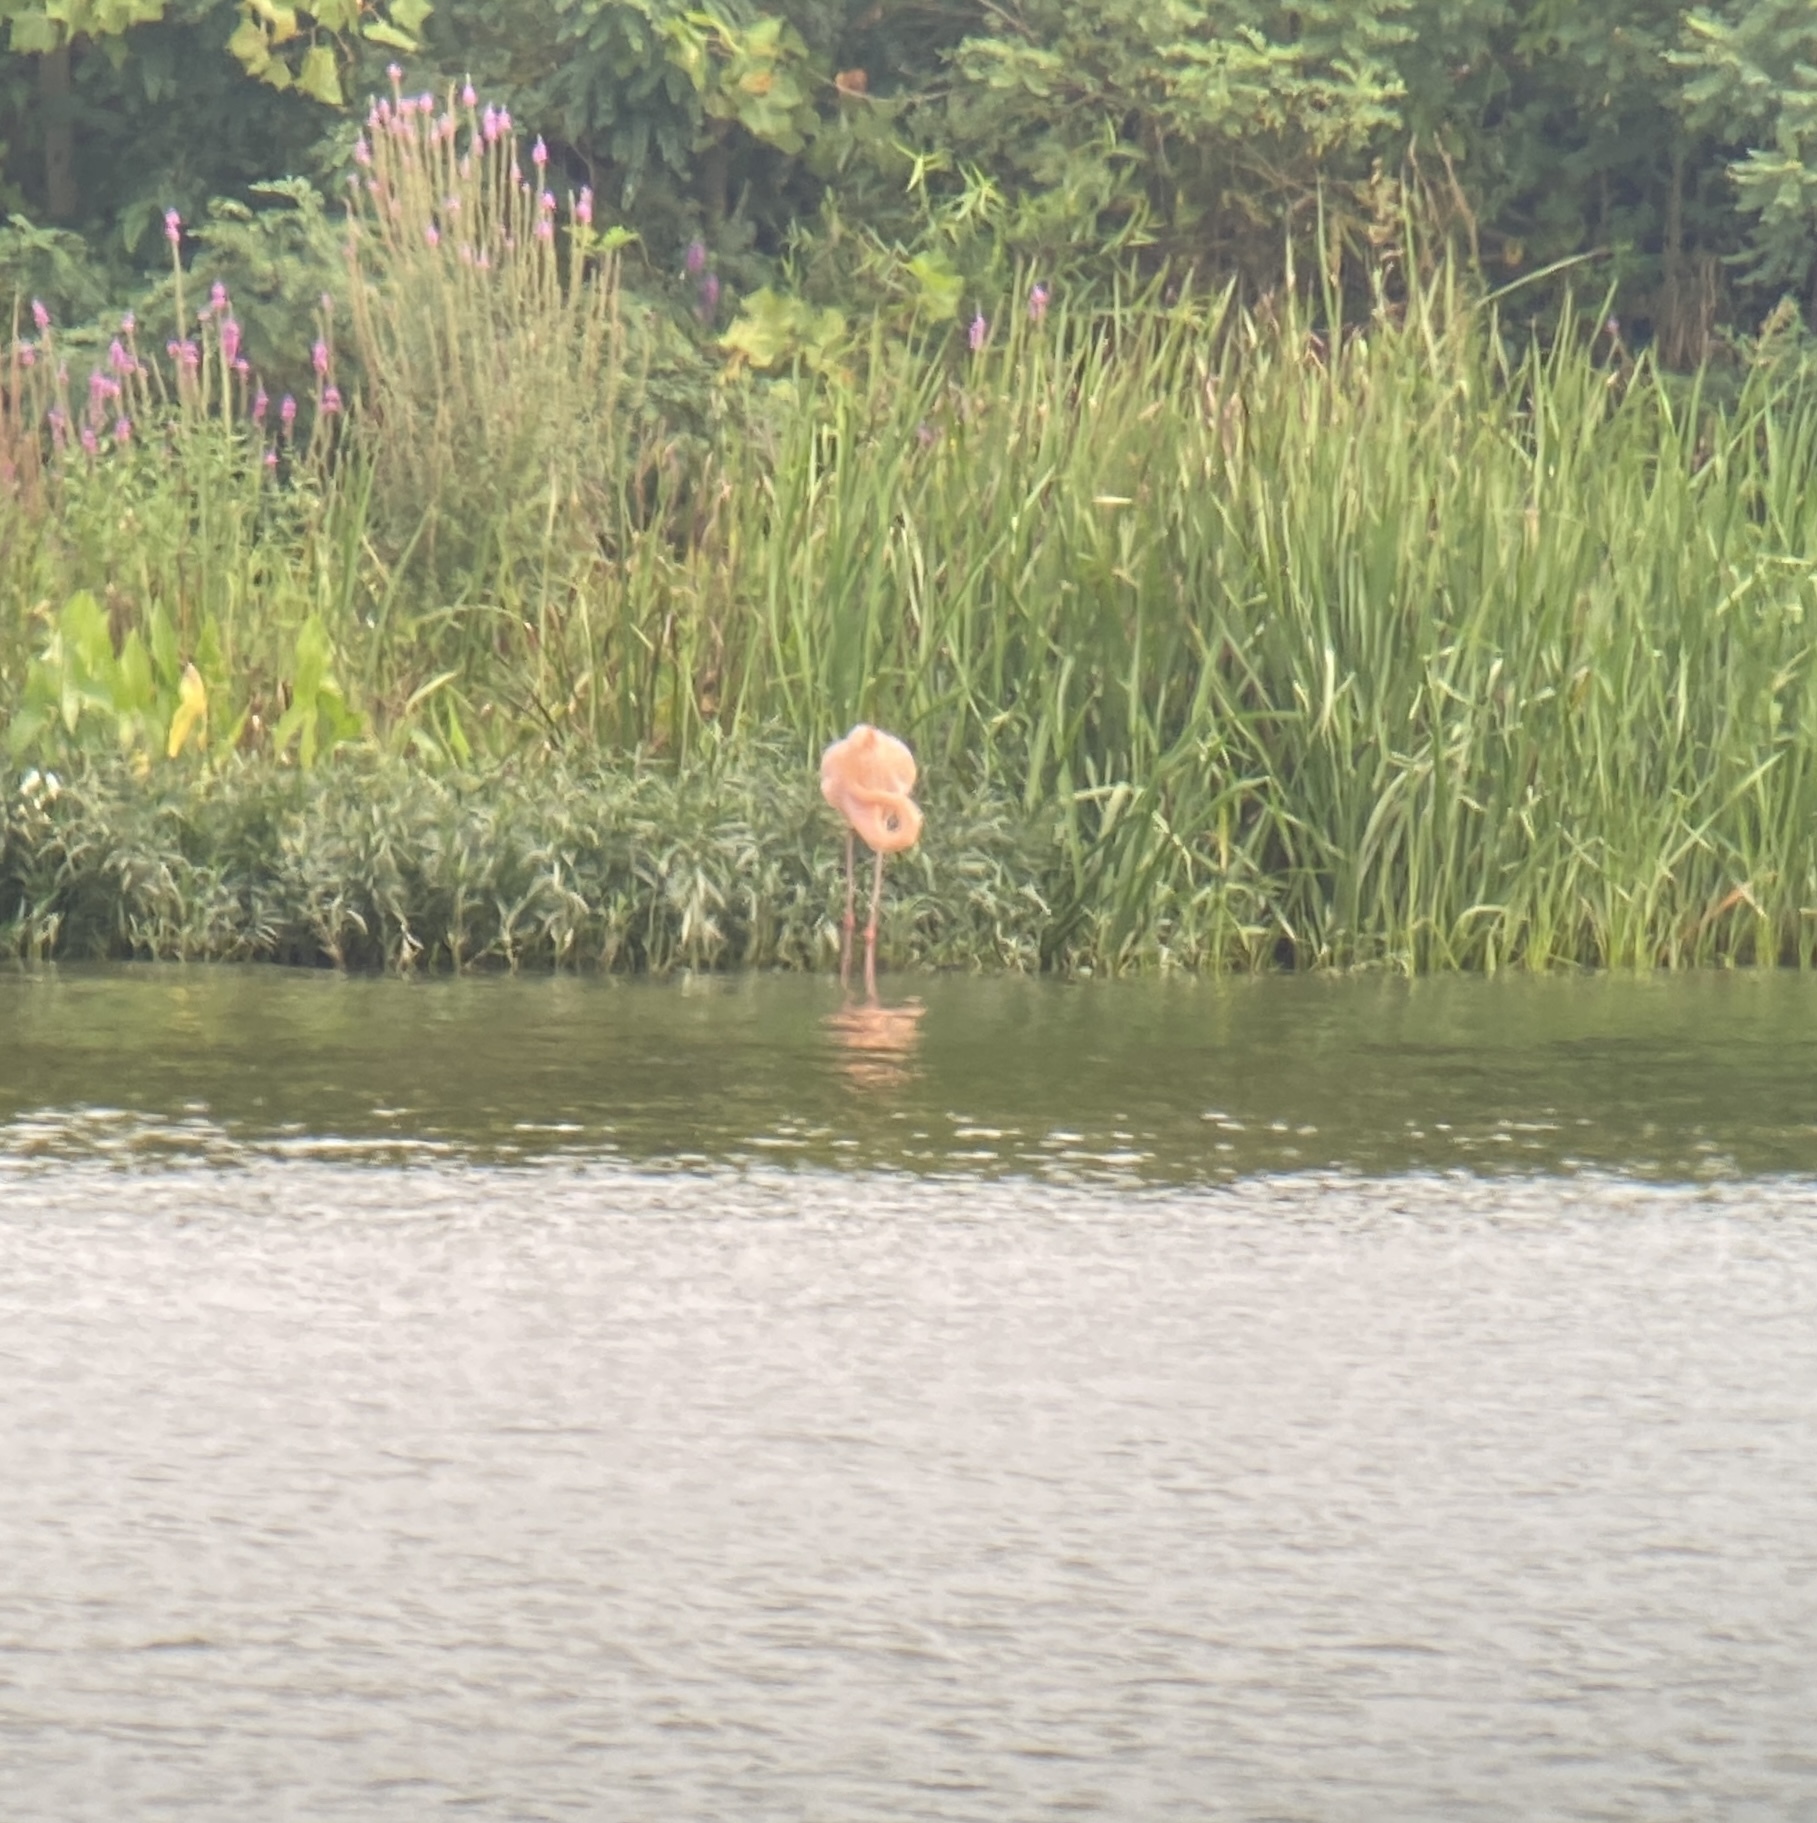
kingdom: Animalia
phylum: Chordata
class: Aves
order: Phoenicopteriformes
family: Phoenicopteridae
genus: Phoenicopterus
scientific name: Phoenicopterus ruber
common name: American flamingo
